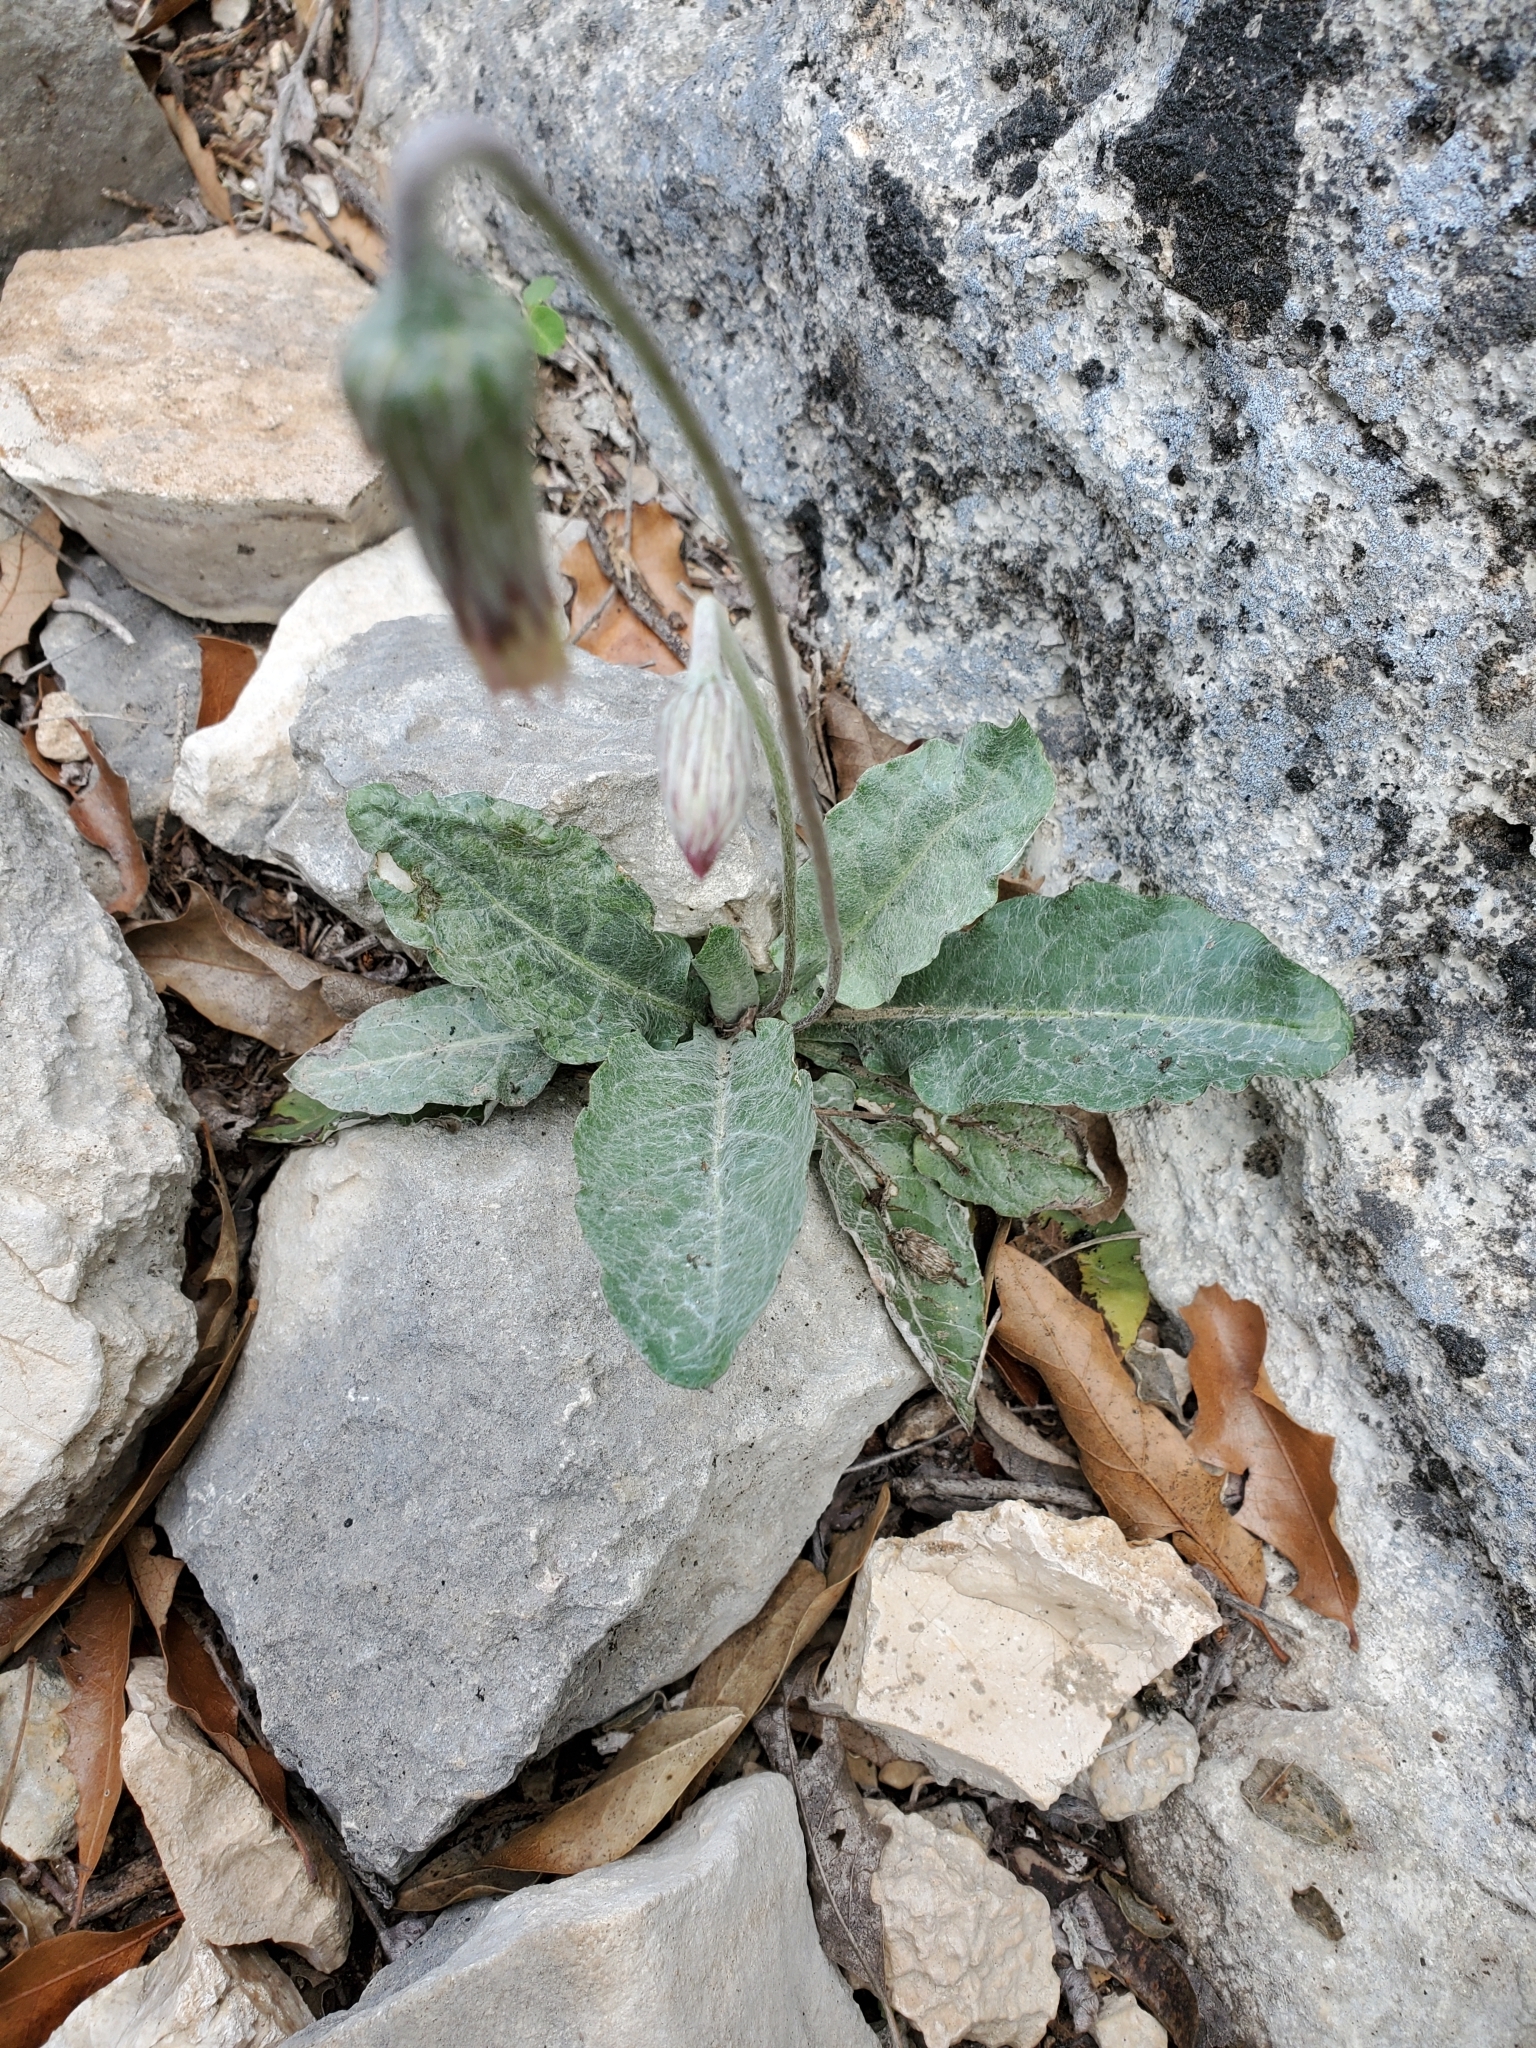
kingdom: Plantae
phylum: Tracheophyta
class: Magnoliopsida
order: Asterales
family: Asteraceae
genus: Chaptalia
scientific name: Chaptalia texana
